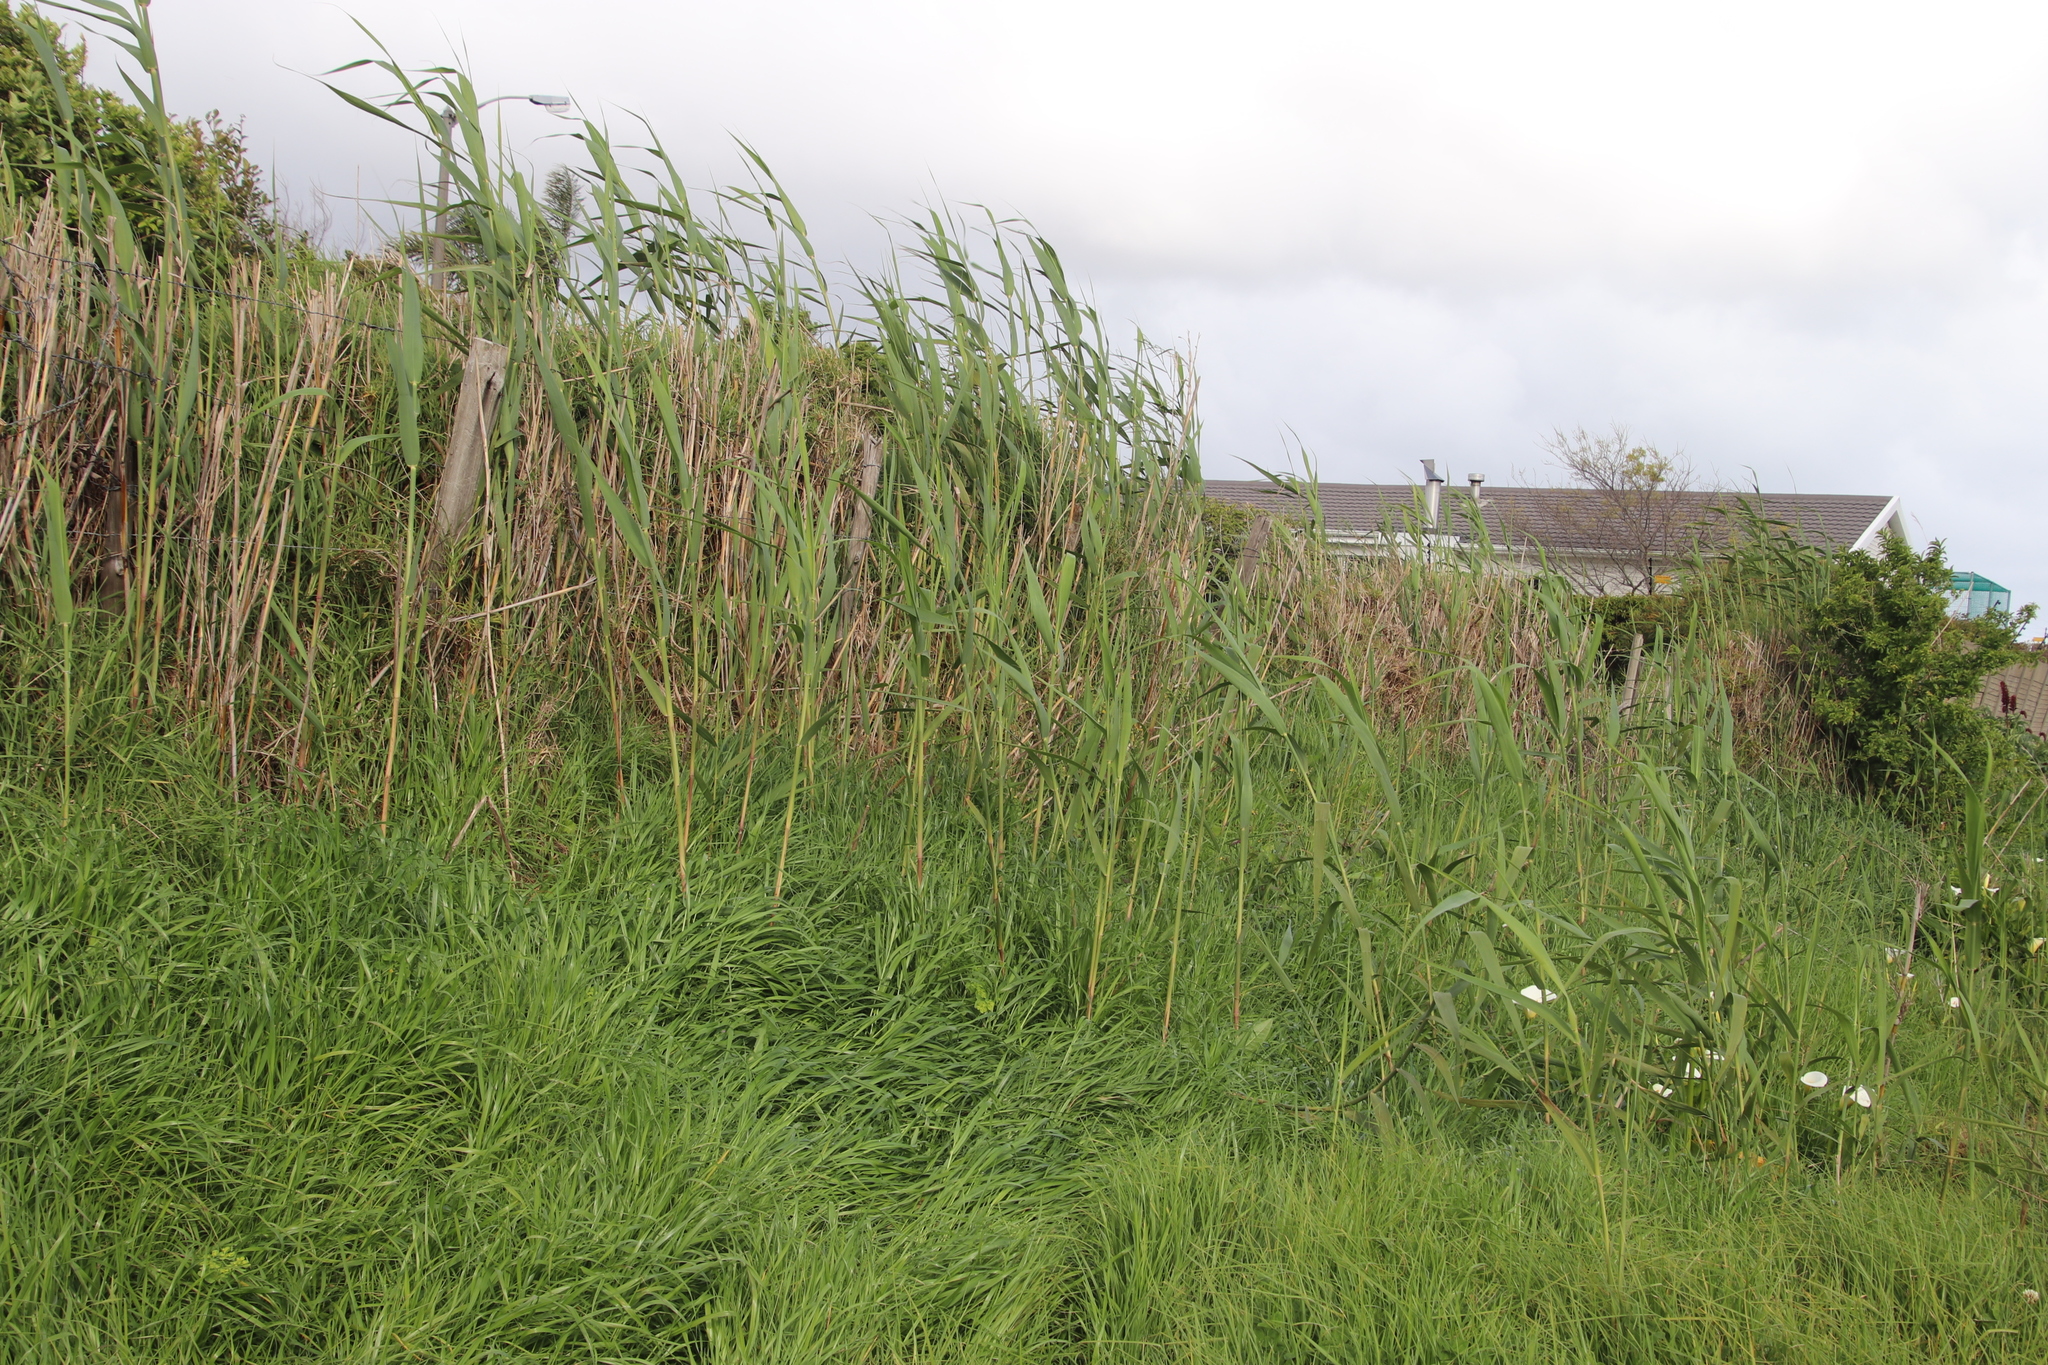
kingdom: Plantae
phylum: Tracheophyta
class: Liliopsida
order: Poales
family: Poaceae
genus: Phragmites
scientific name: Phragmites australis
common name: Common reed
